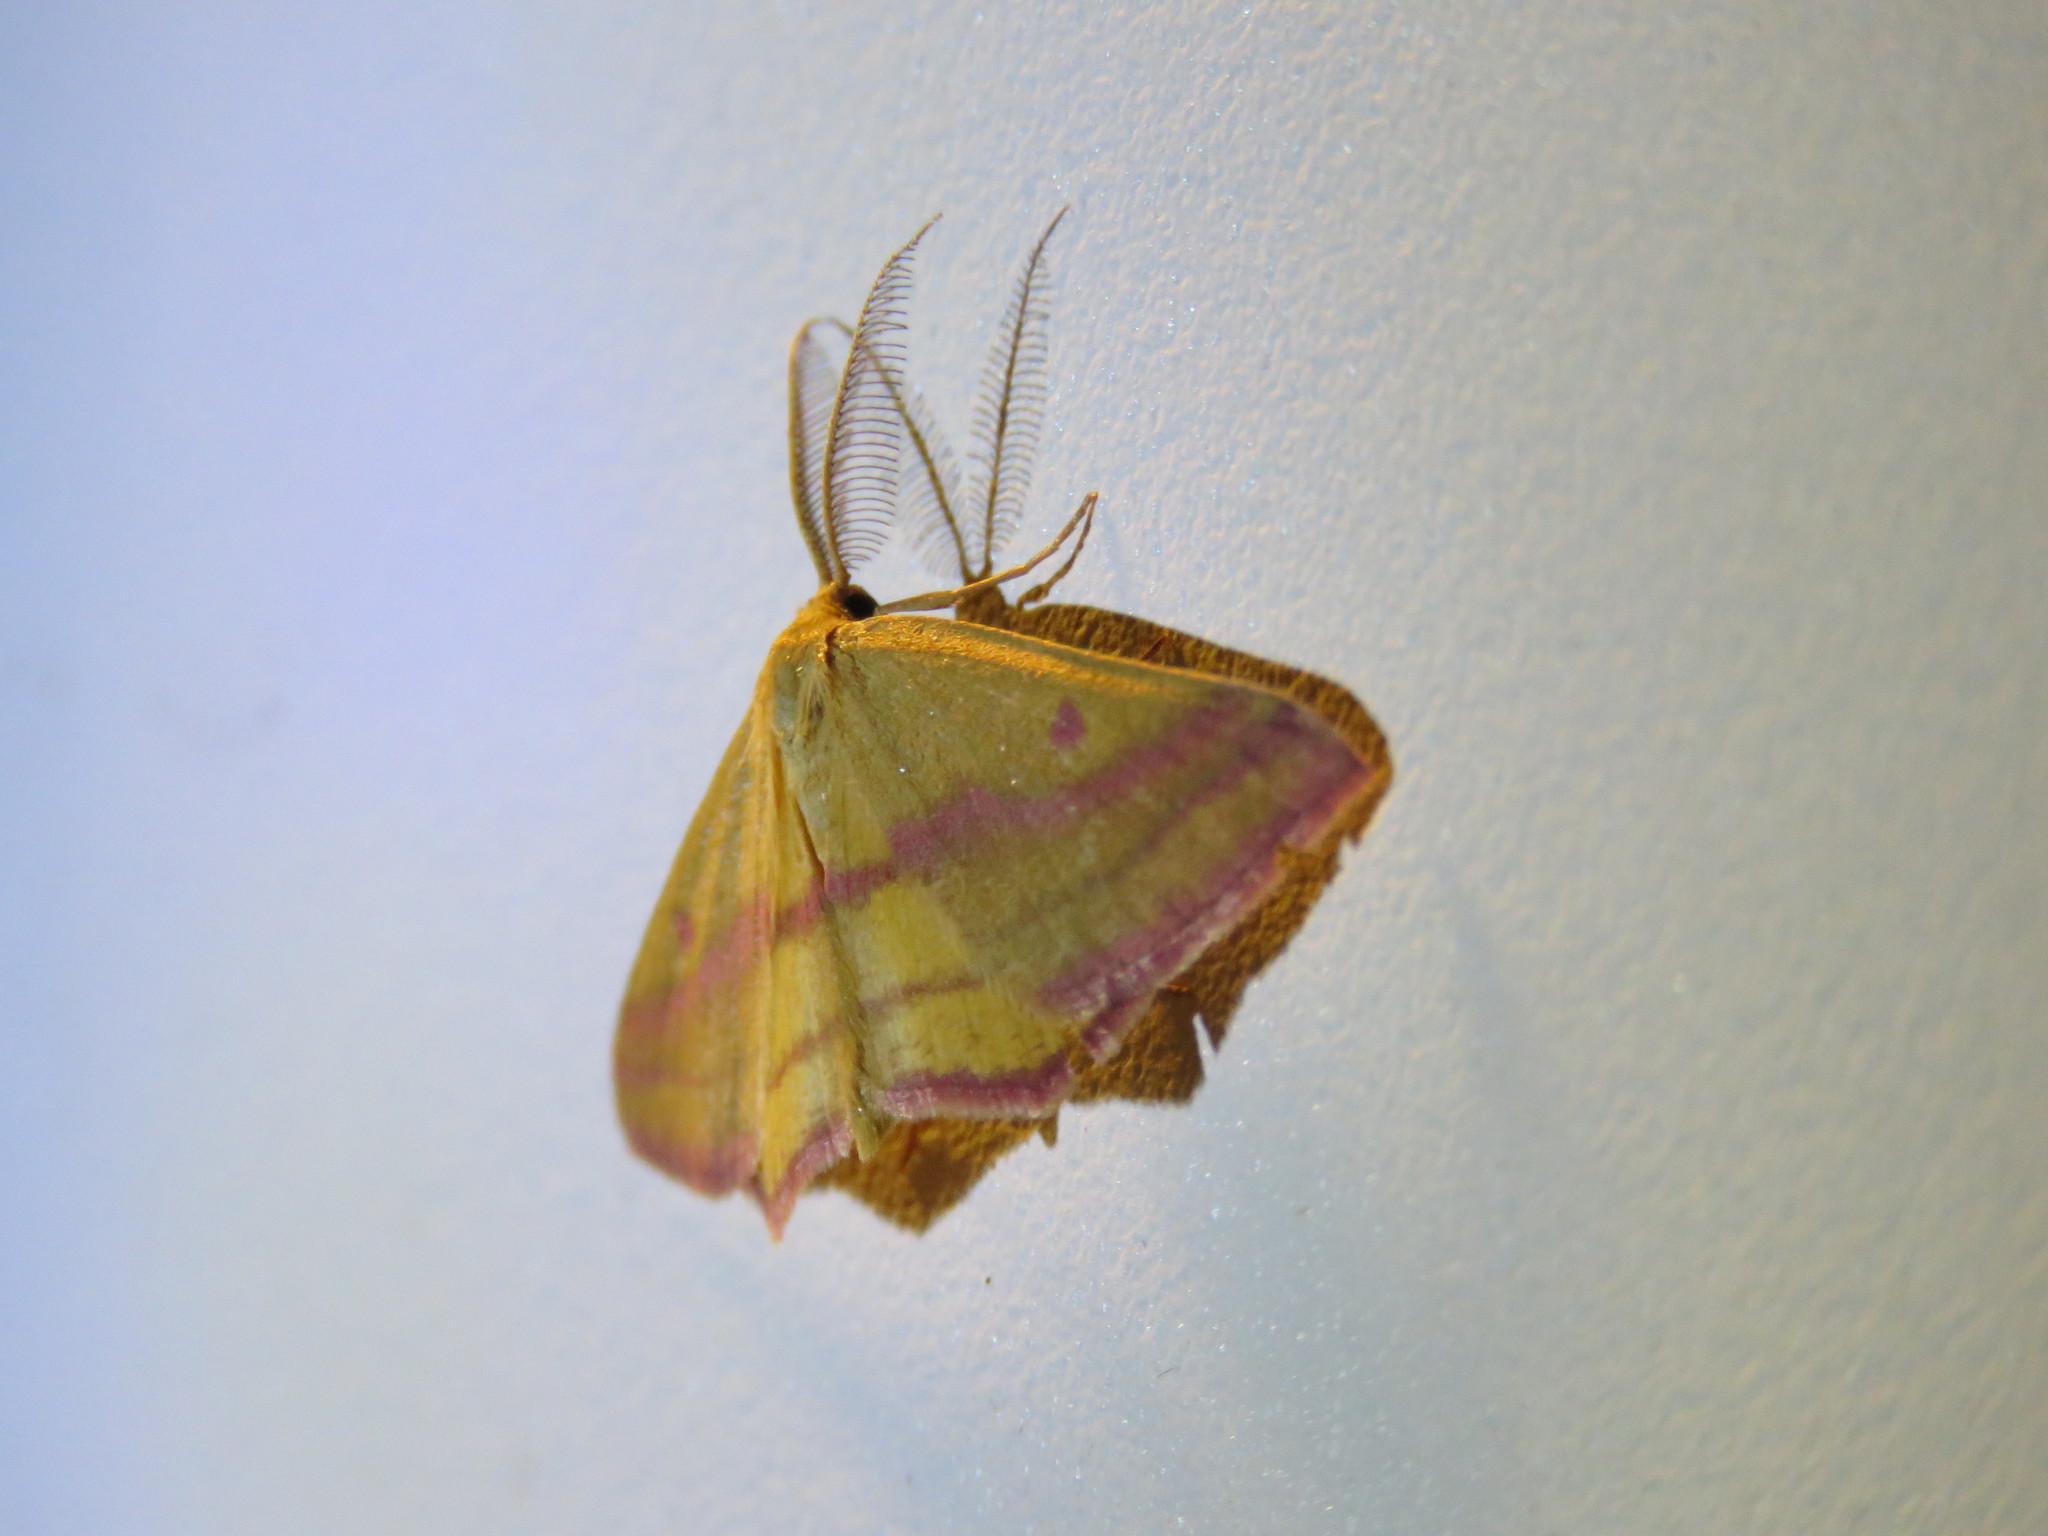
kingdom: Animalia
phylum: Arthropoda
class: Insecta
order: Lepidoptera
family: Geometridae
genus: Haematopis
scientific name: Haematopis grataria
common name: Chickweed geometer
